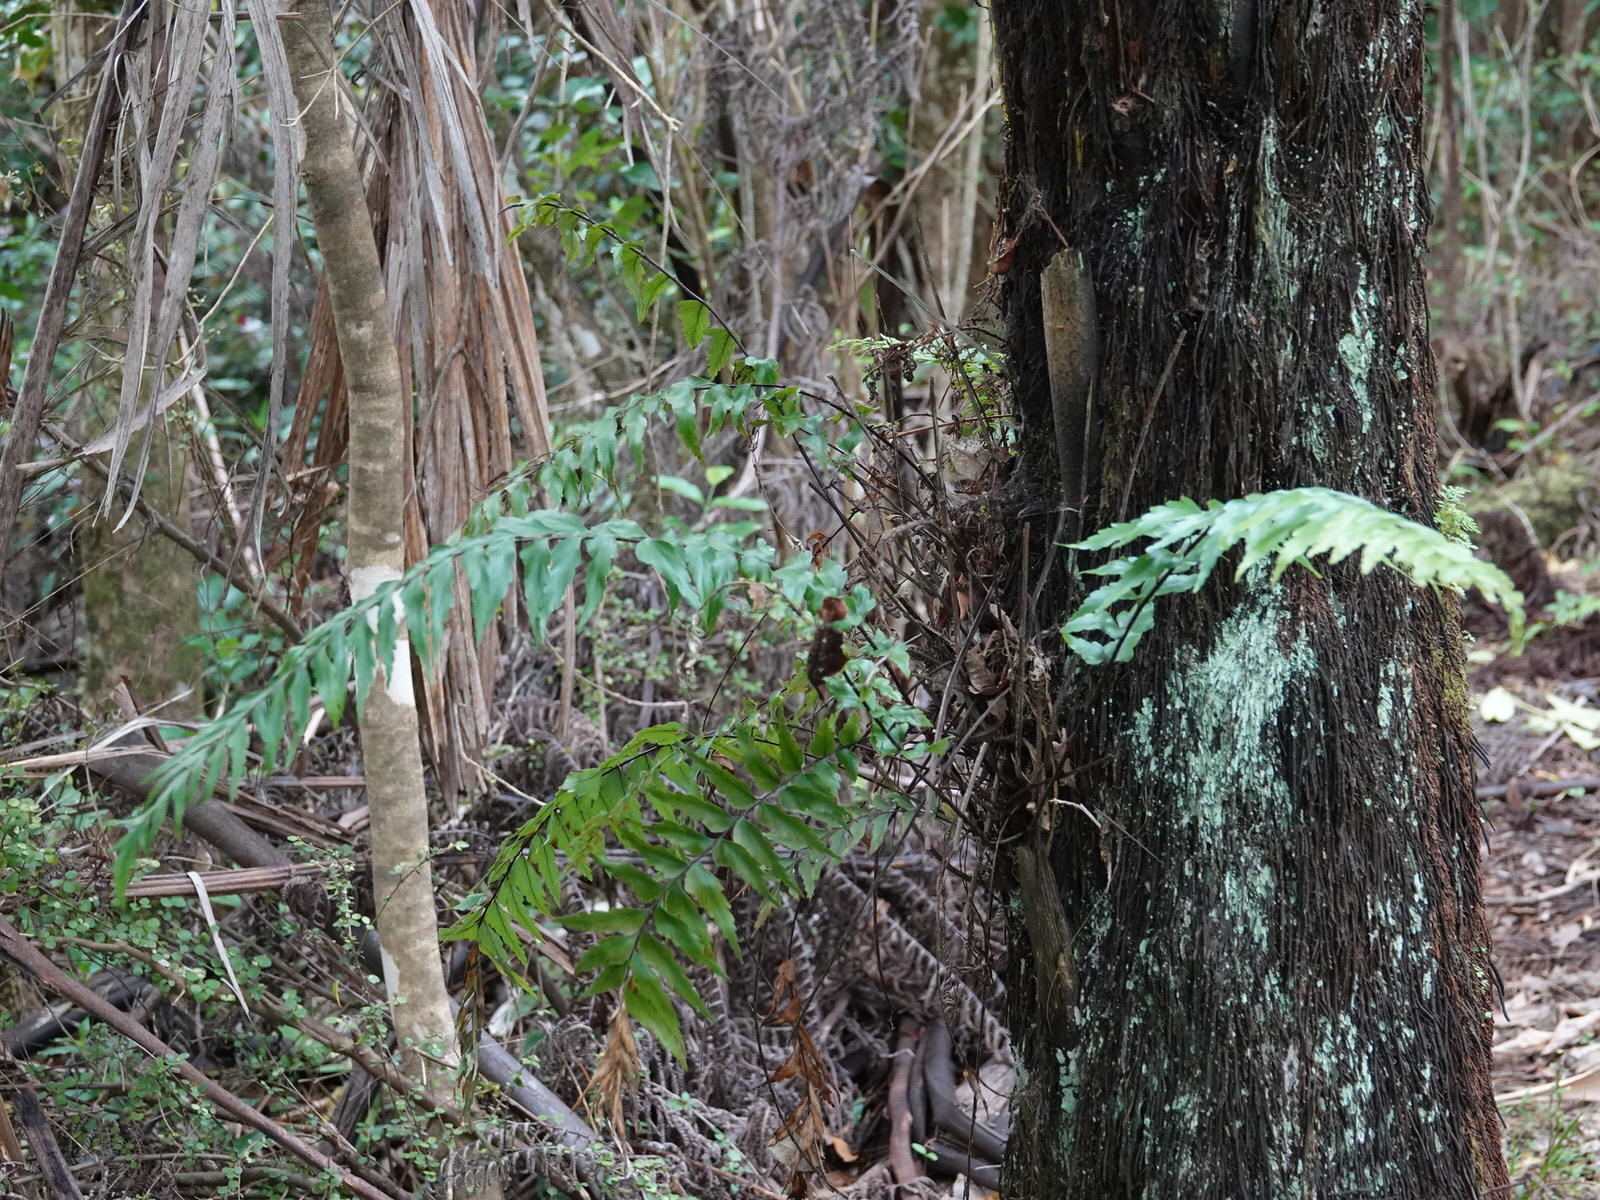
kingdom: Plantae
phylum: Tracheophyta
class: Polypodiopsida
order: Polypodiales
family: Aspleniaceae
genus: Asplenium
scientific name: Asplenium polyodon
